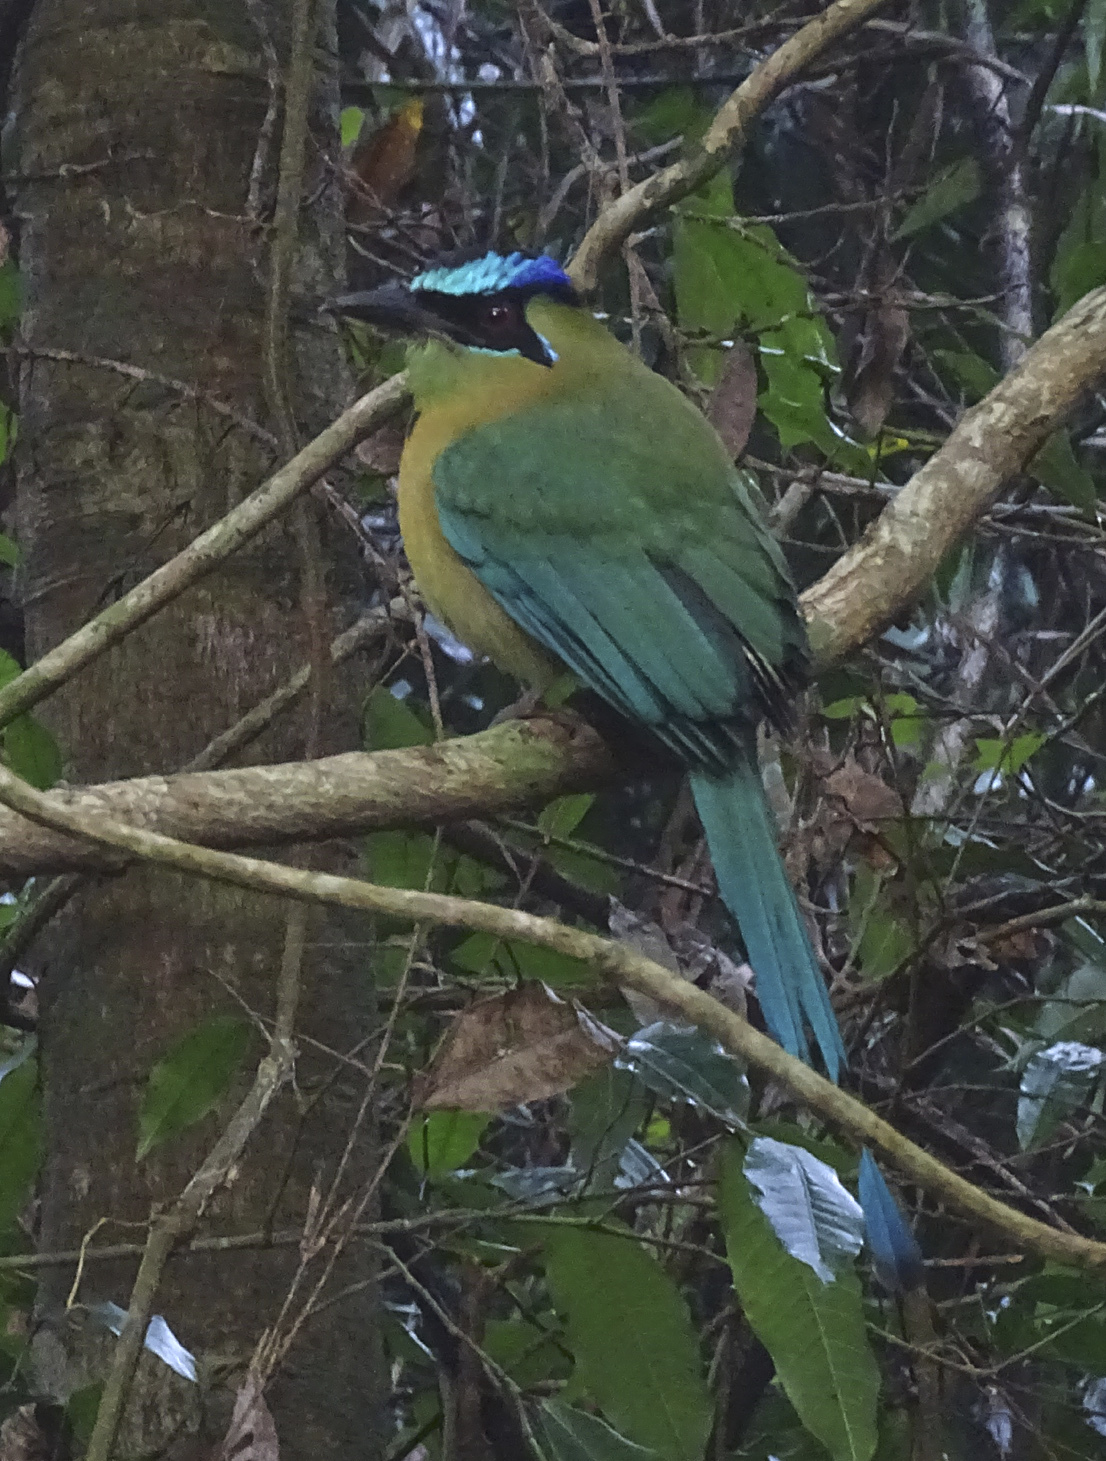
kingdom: Animalia
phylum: Chordata
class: Aves
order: Coraciiformes
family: Momotidae
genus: Momotus
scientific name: Momotus lessonii
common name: Lesson's motmot
